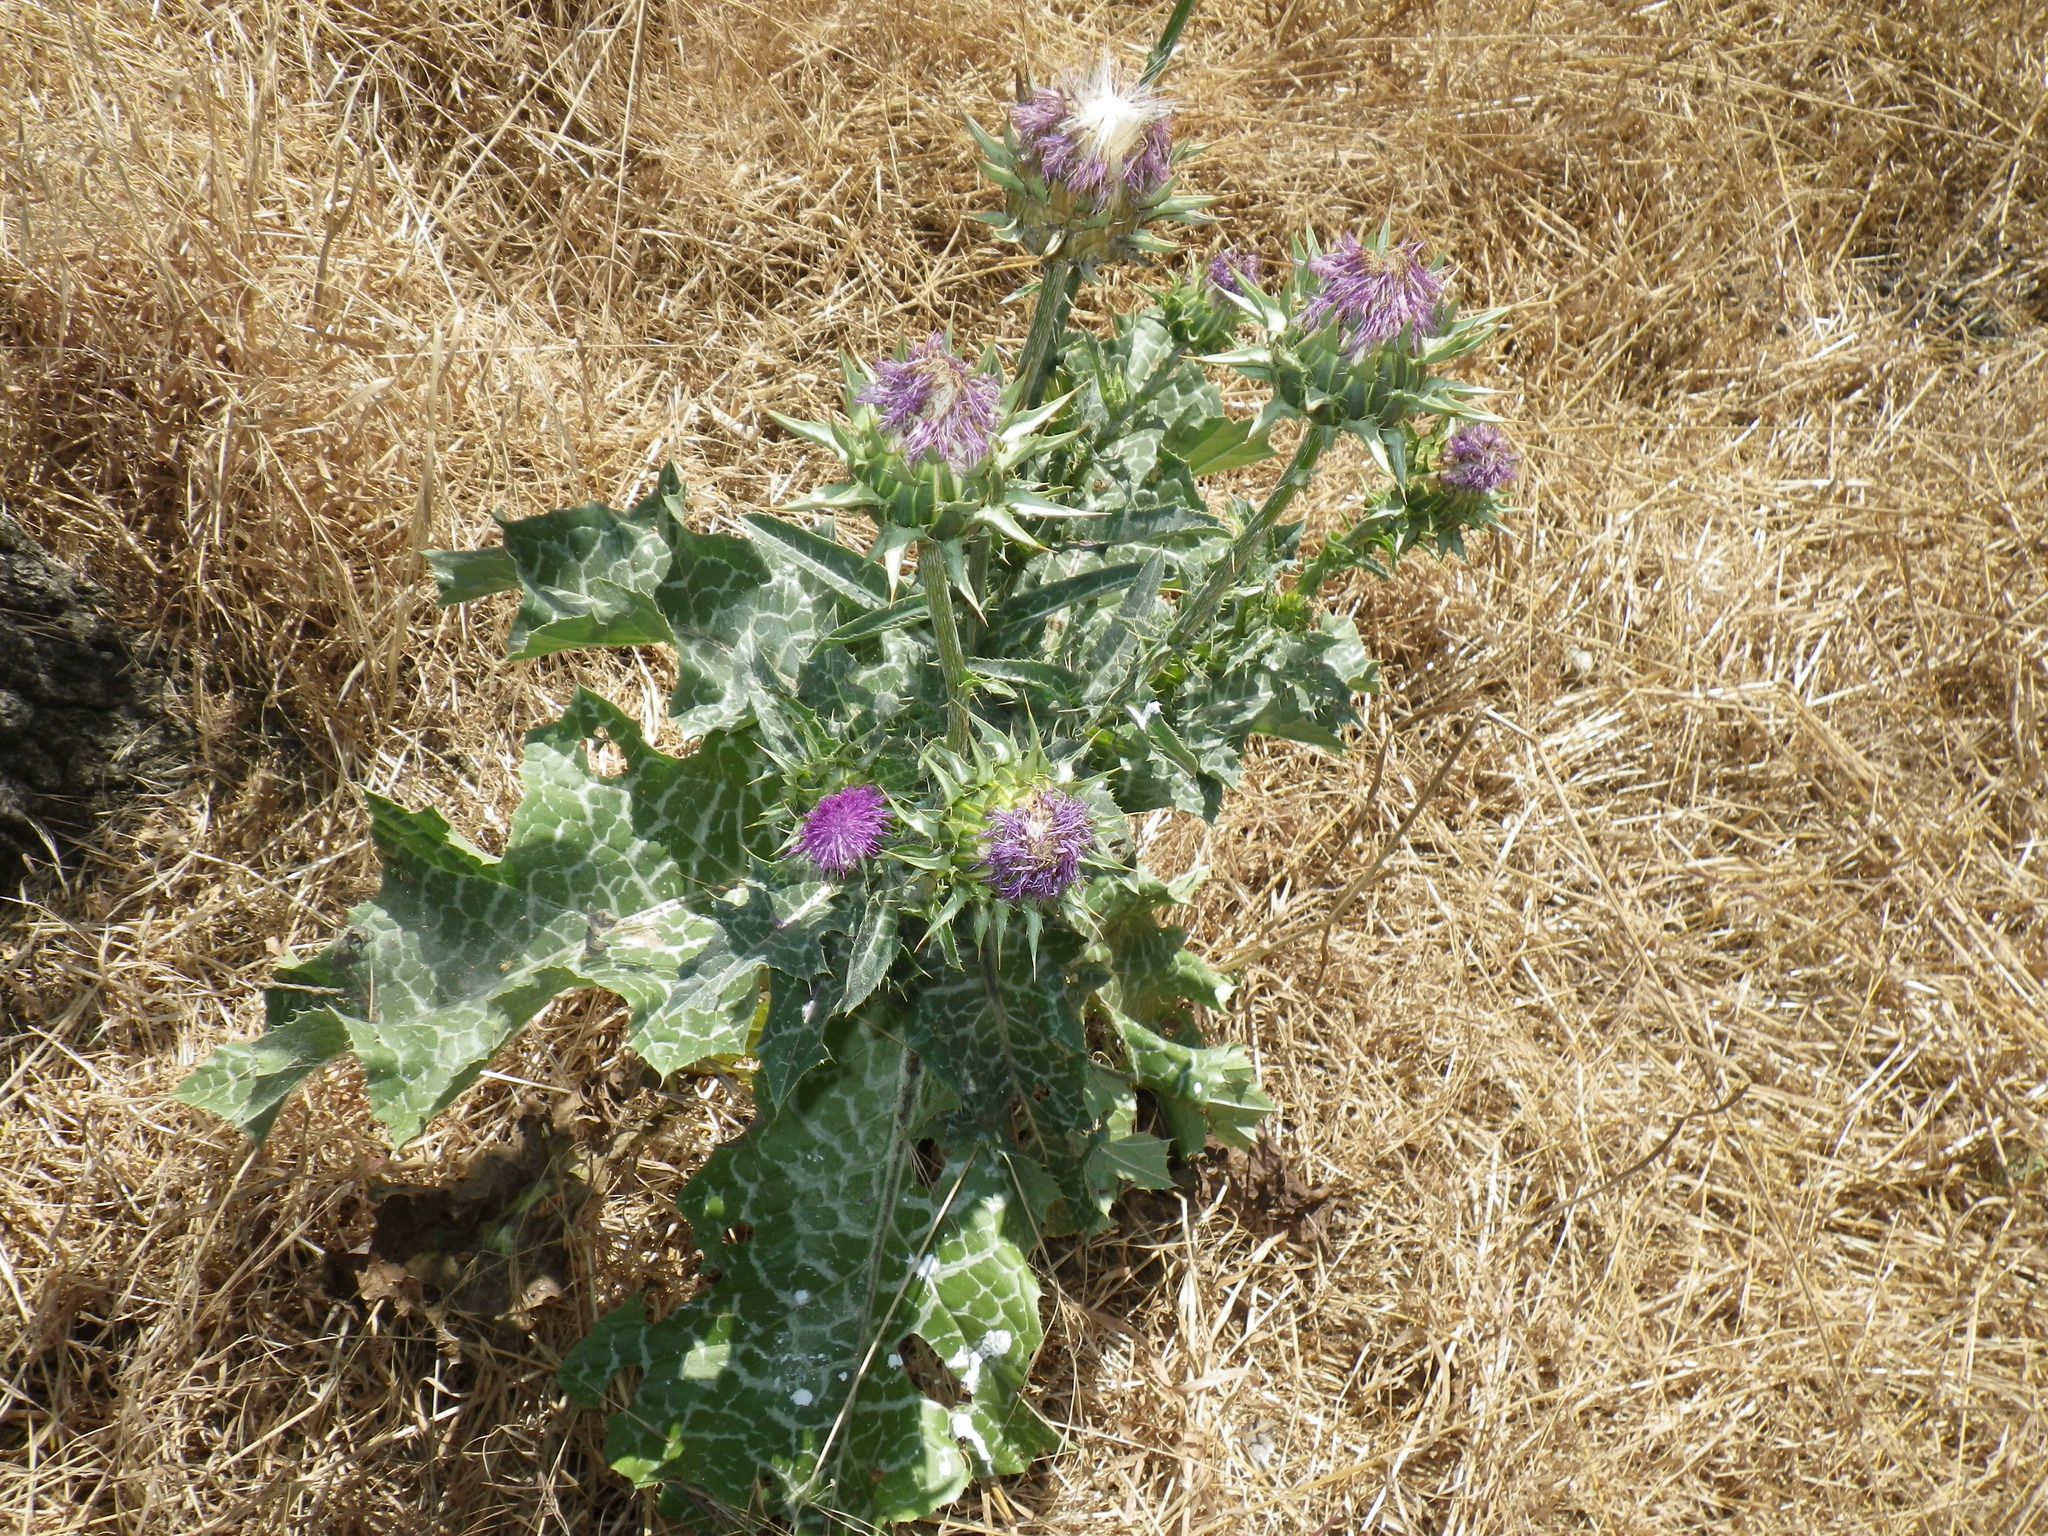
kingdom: Plantae
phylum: Tracheophyta
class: Magnoliopsida
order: Asterales
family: Asteraceae
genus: Silybum
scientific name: Silybum marianum
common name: Milk thistle
